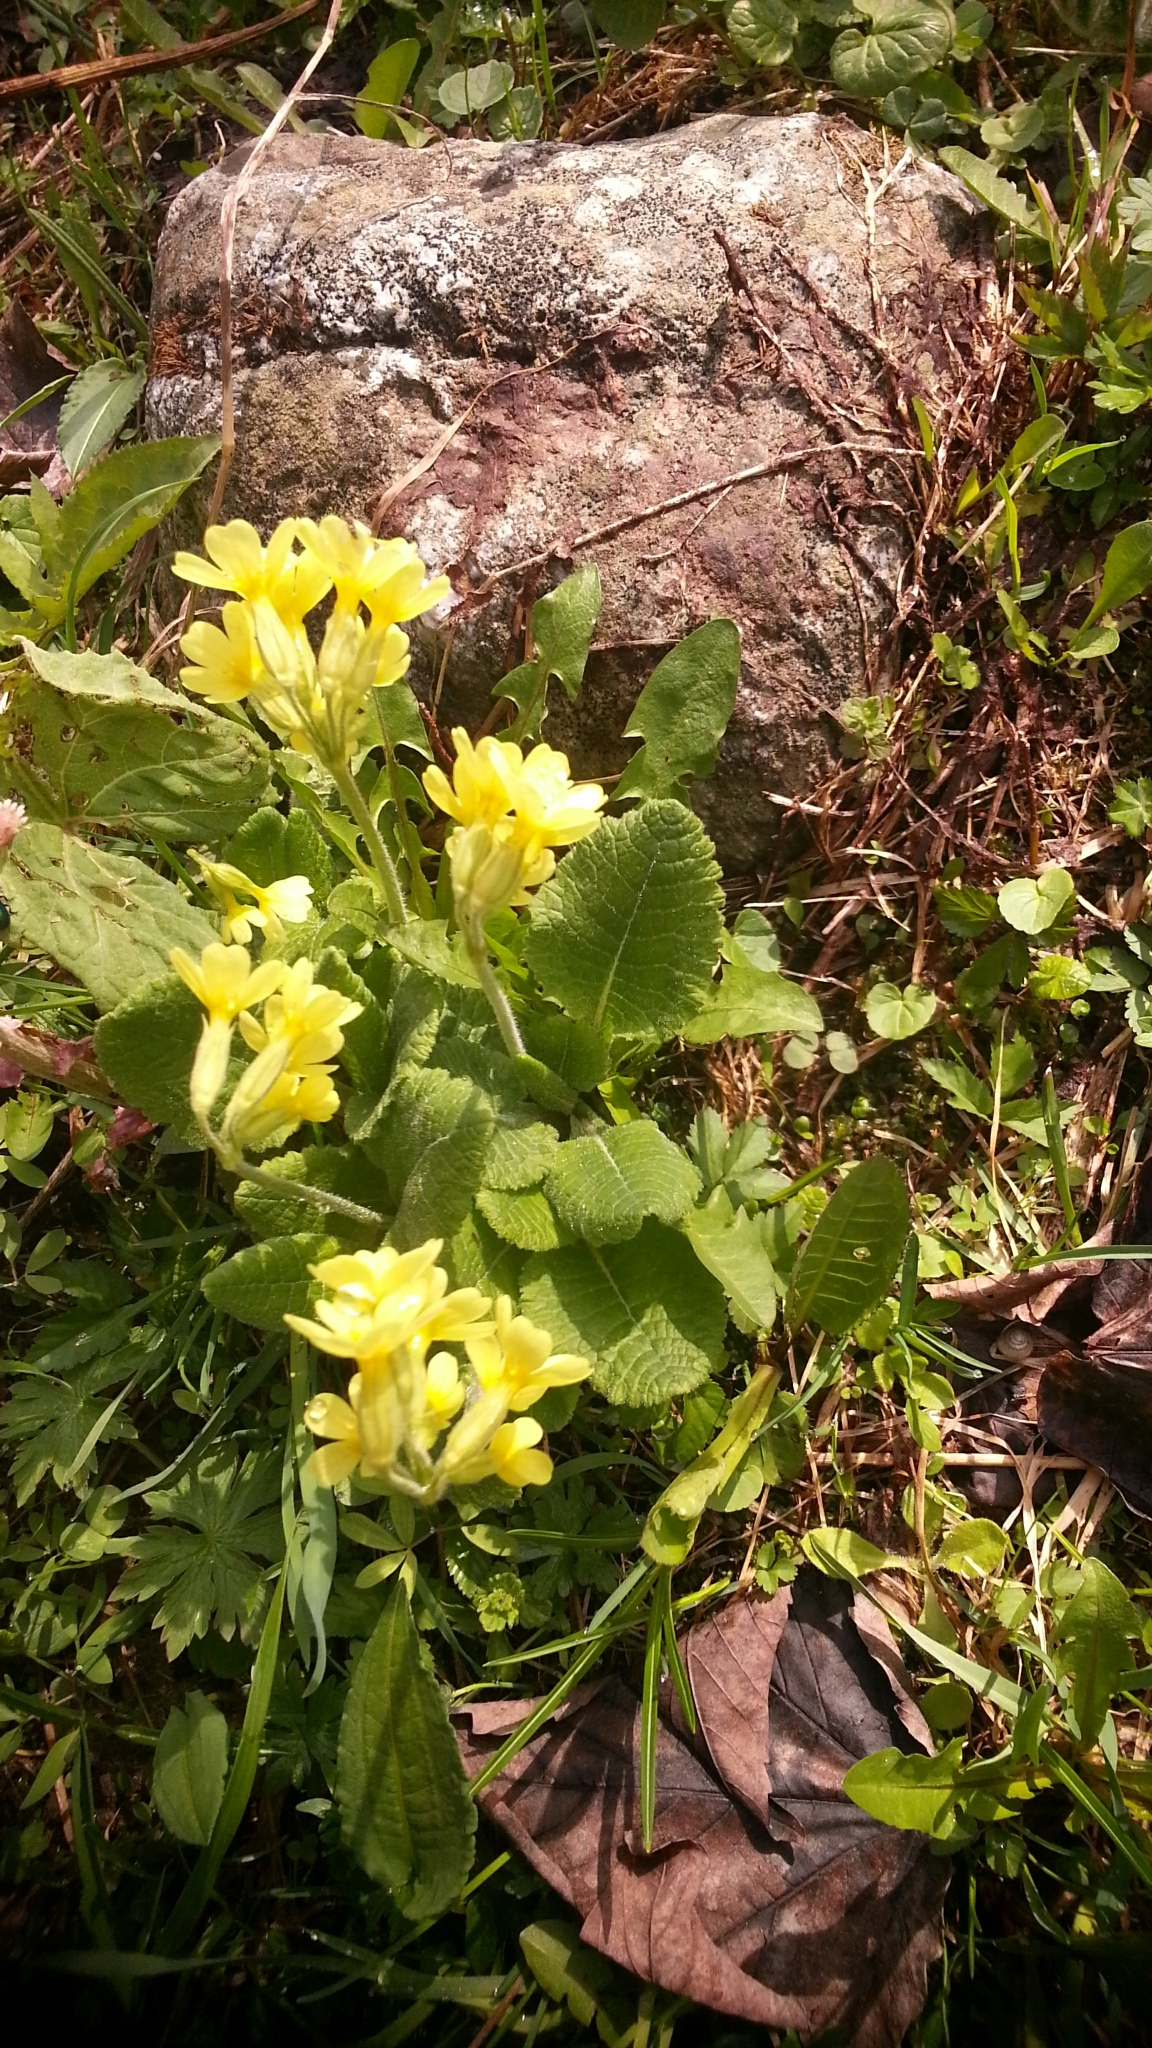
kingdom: Plantae
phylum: Tracheophyta
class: Magnoliopsida
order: Ericales
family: Primulaceae
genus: Primula
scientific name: Primula elatior
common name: Oxlip
